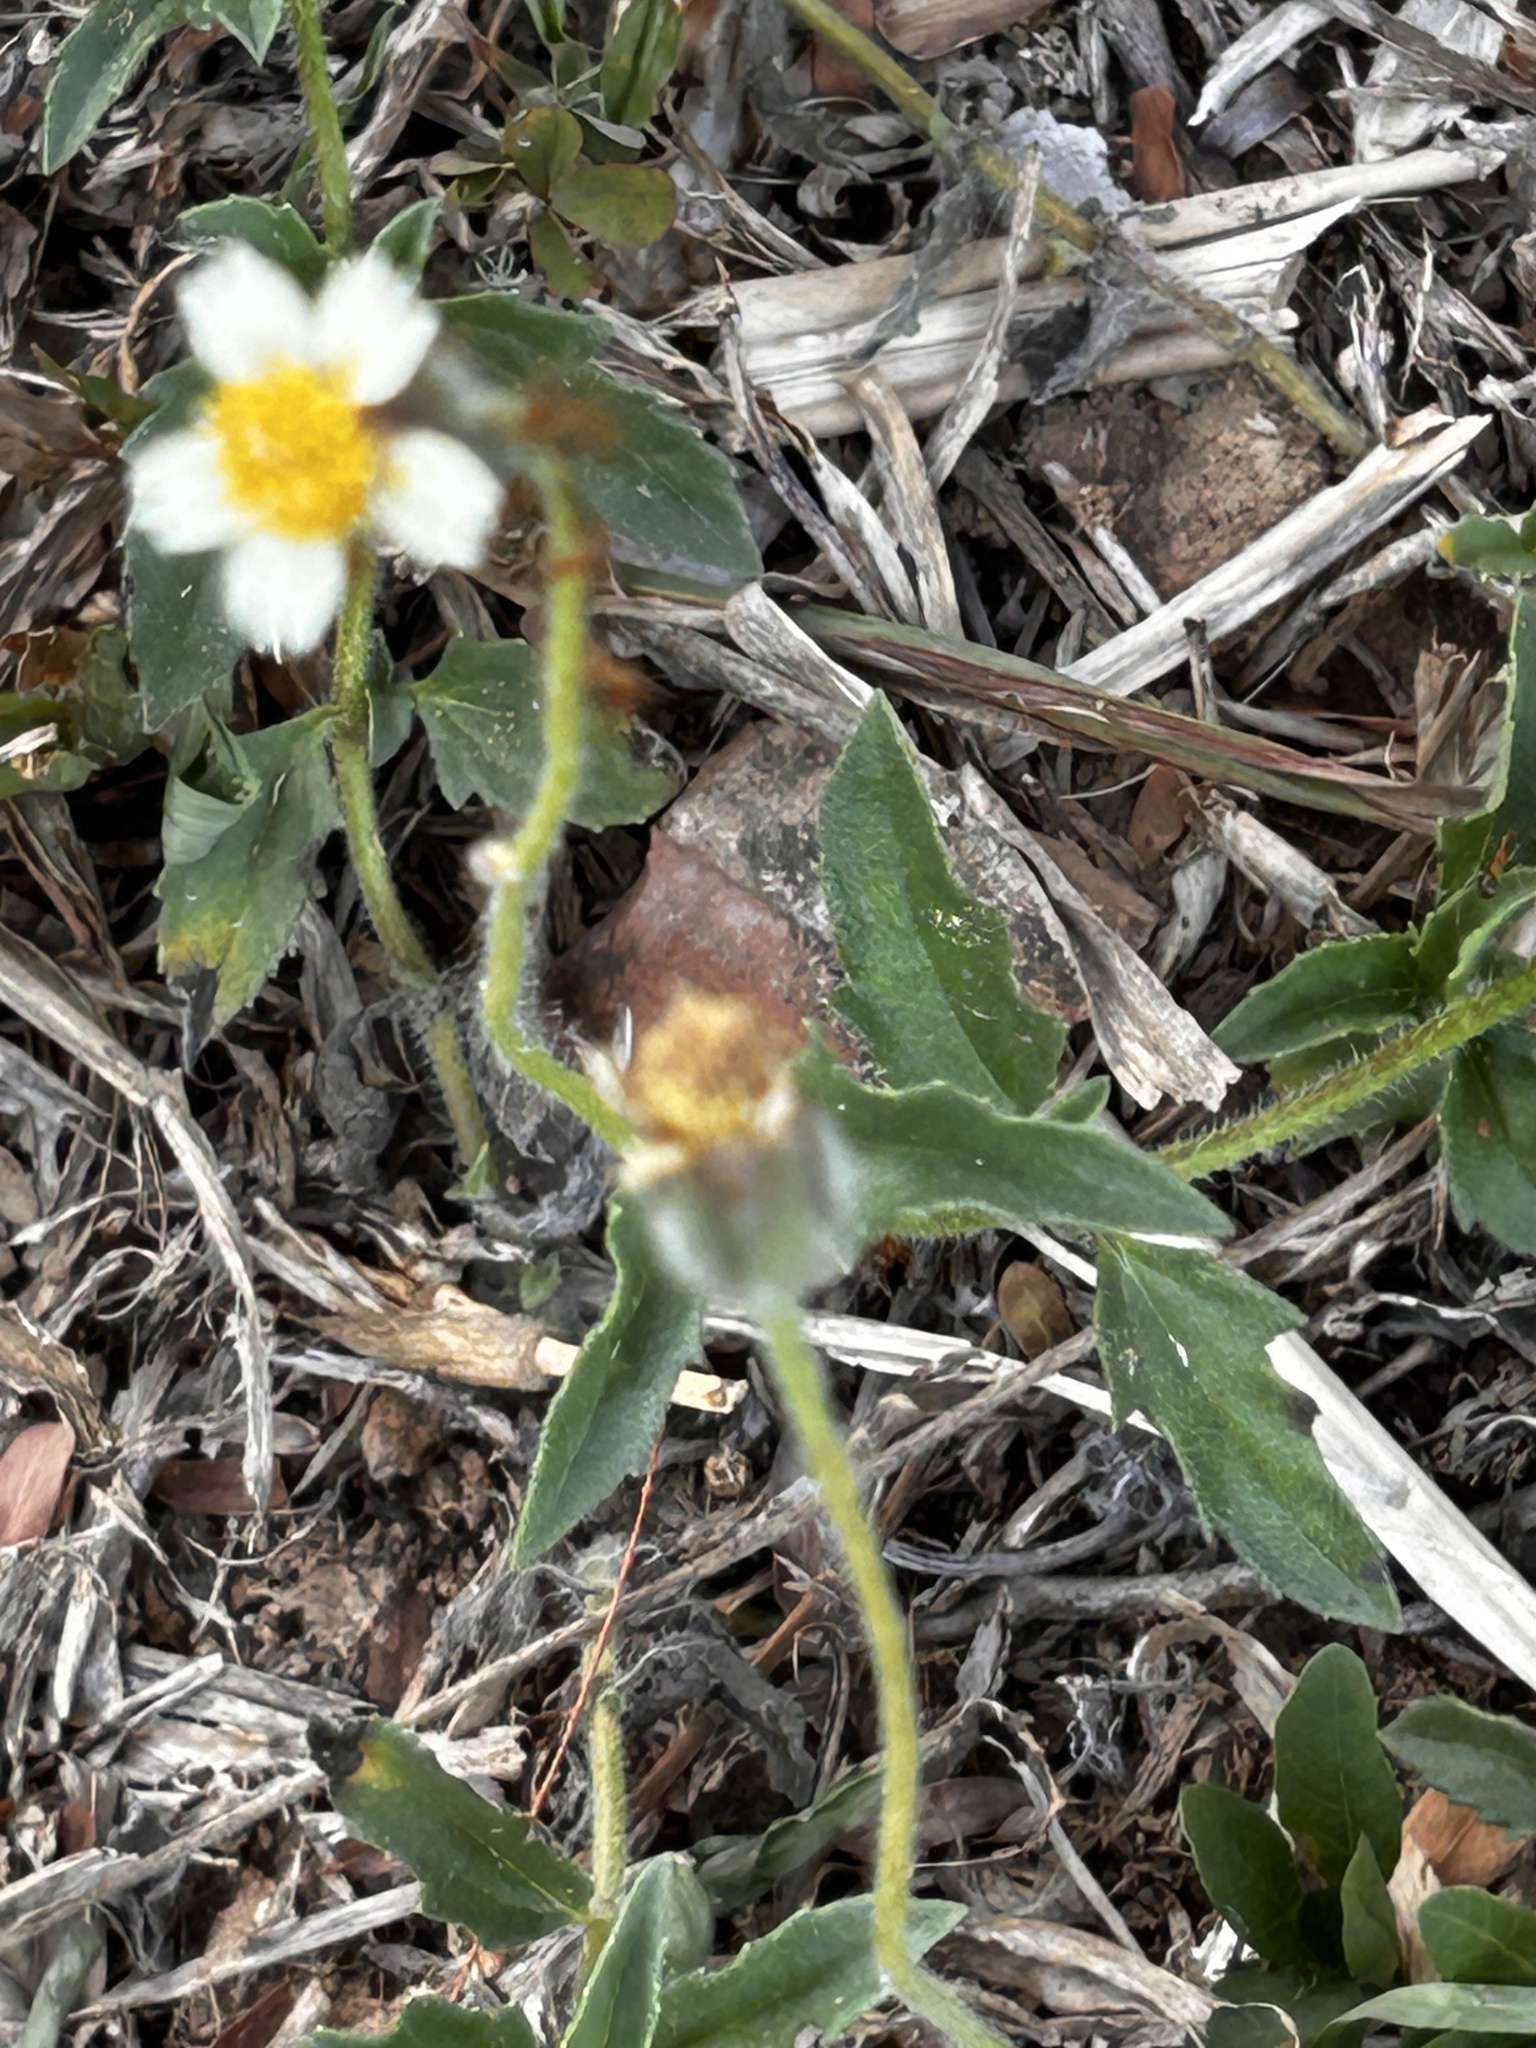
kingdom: Plantae
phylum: Tracheophyta
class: Magnoliopsida
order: Asterales
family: Asteraceae
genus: Tridax
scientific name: Tridax procumbens
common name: Coatbuttons
